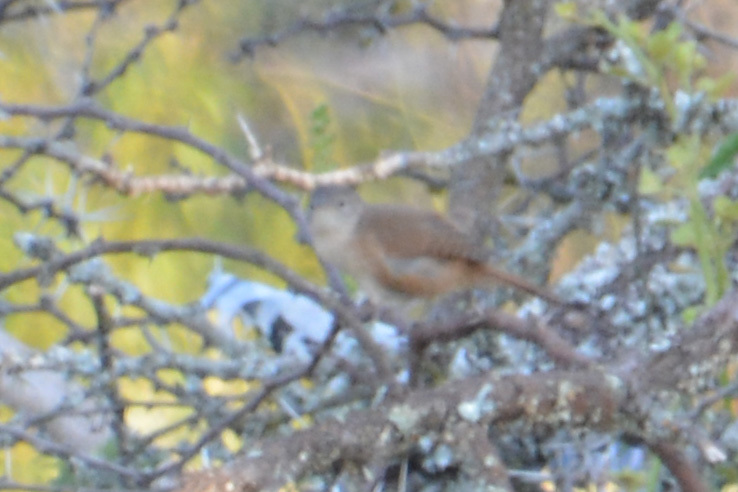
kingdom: Animalia
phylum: Chordata
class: Aves
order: Passeriformes
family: Troglodytidae
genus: Troglodytes
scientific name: Troglodytes aedon
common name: House wren
